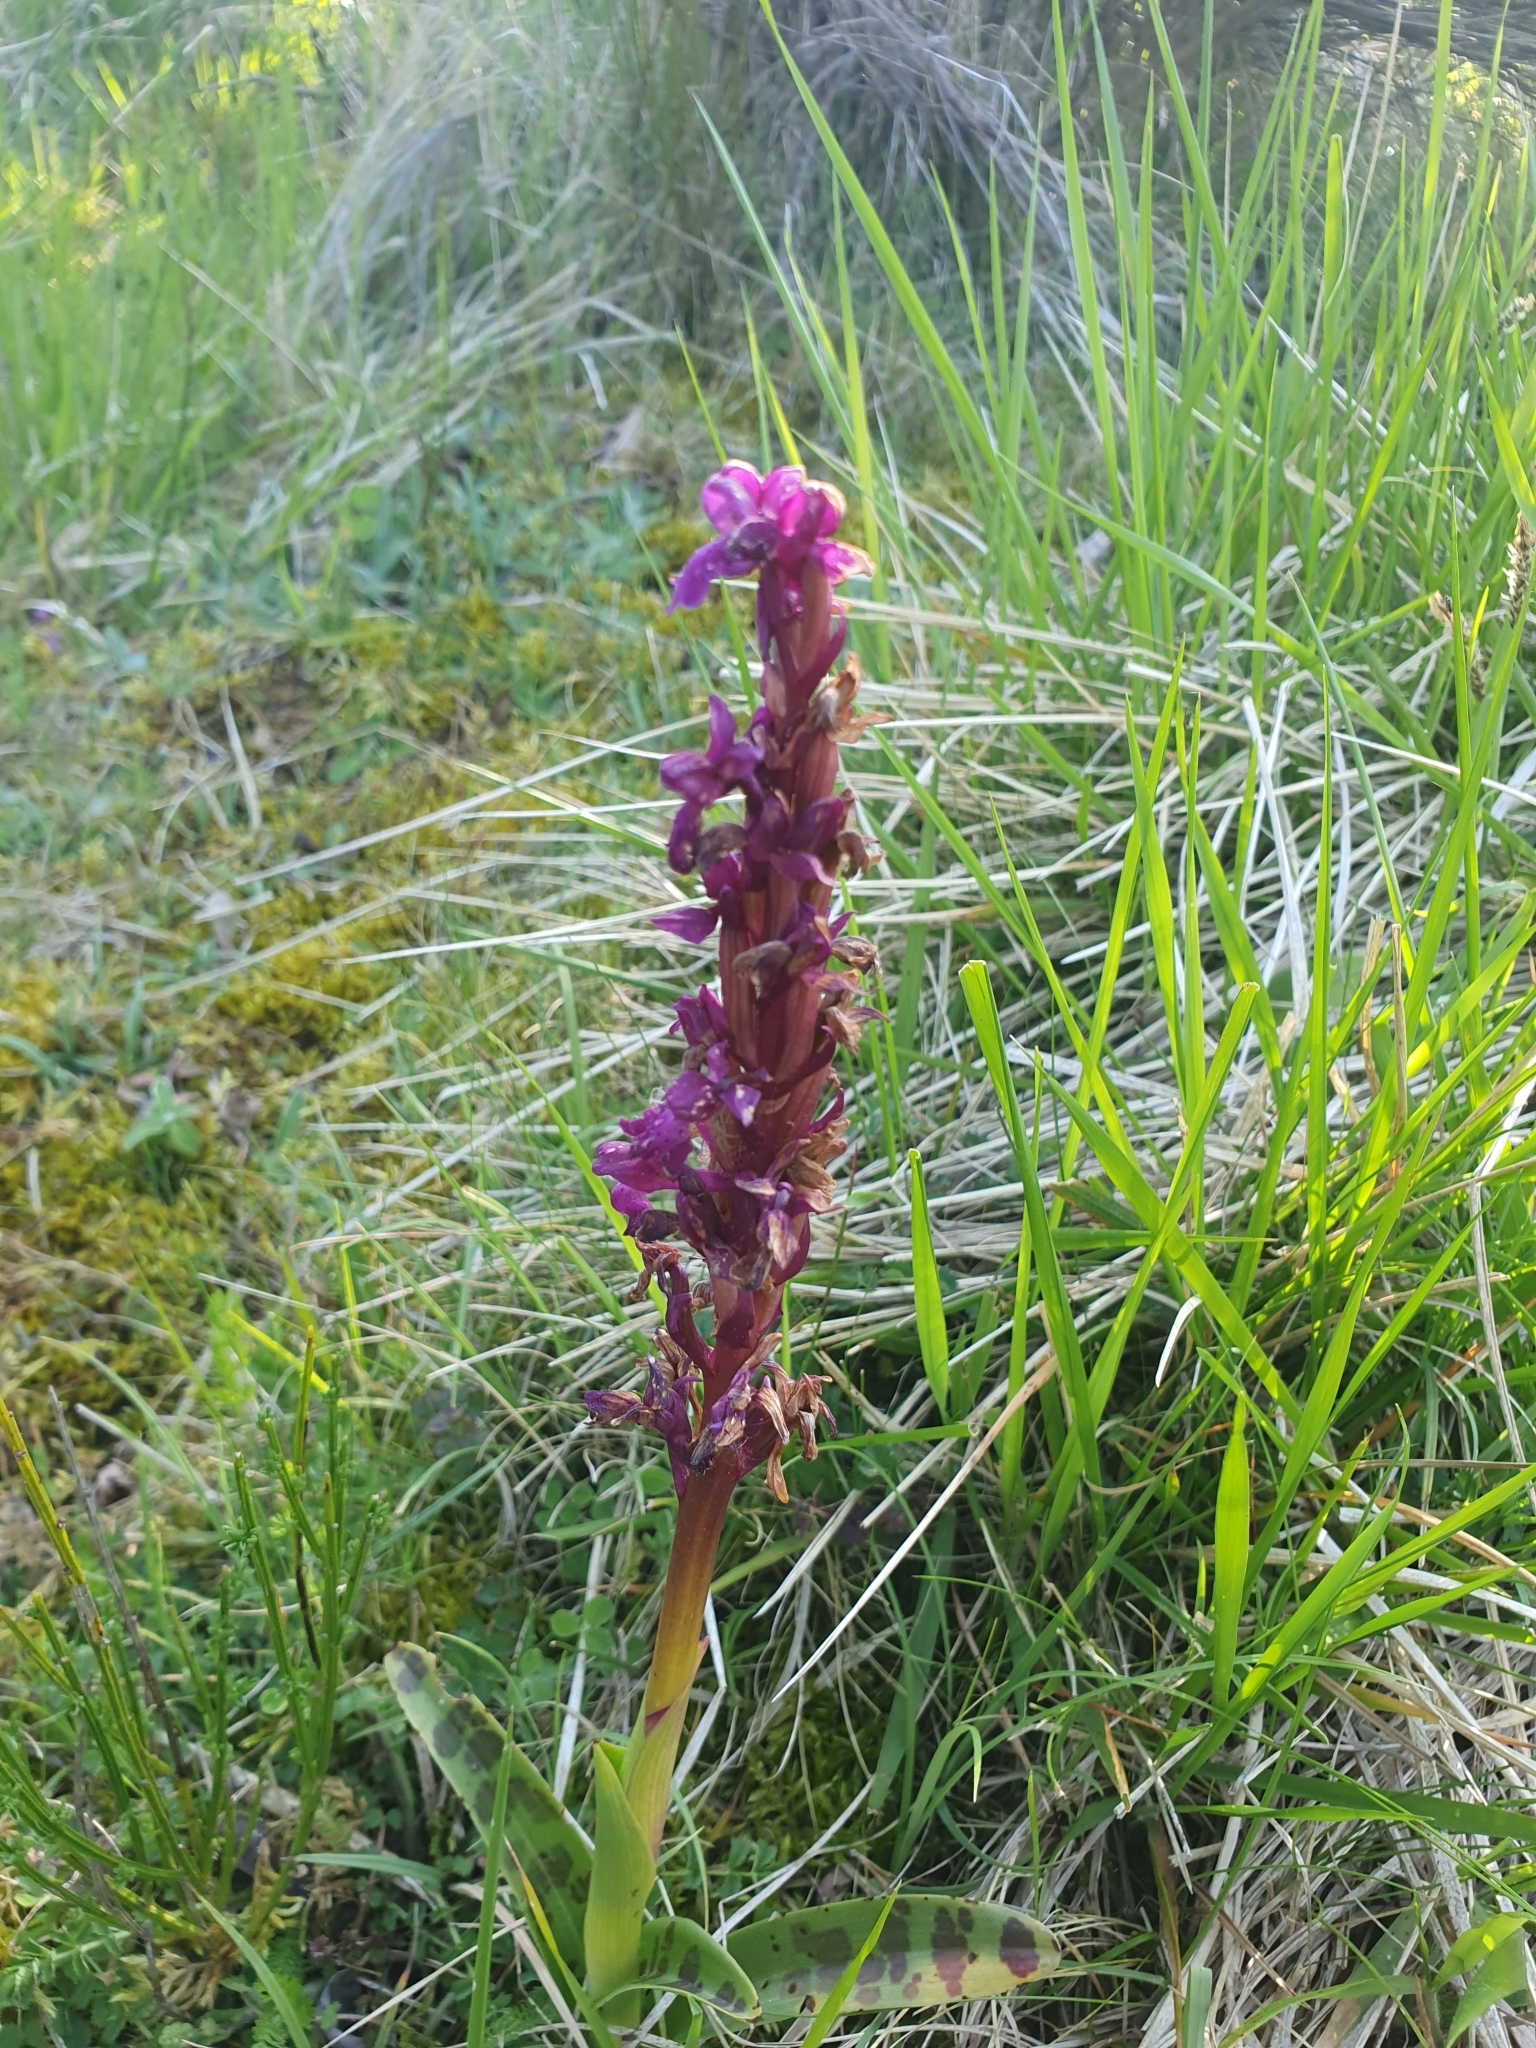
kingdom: Plantae
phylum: Tracheophyta
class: Liliopsida
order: Asparagales
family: Orchidaceae
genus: Orchis
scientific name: Orchis mascula
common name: Early-purple orchid
